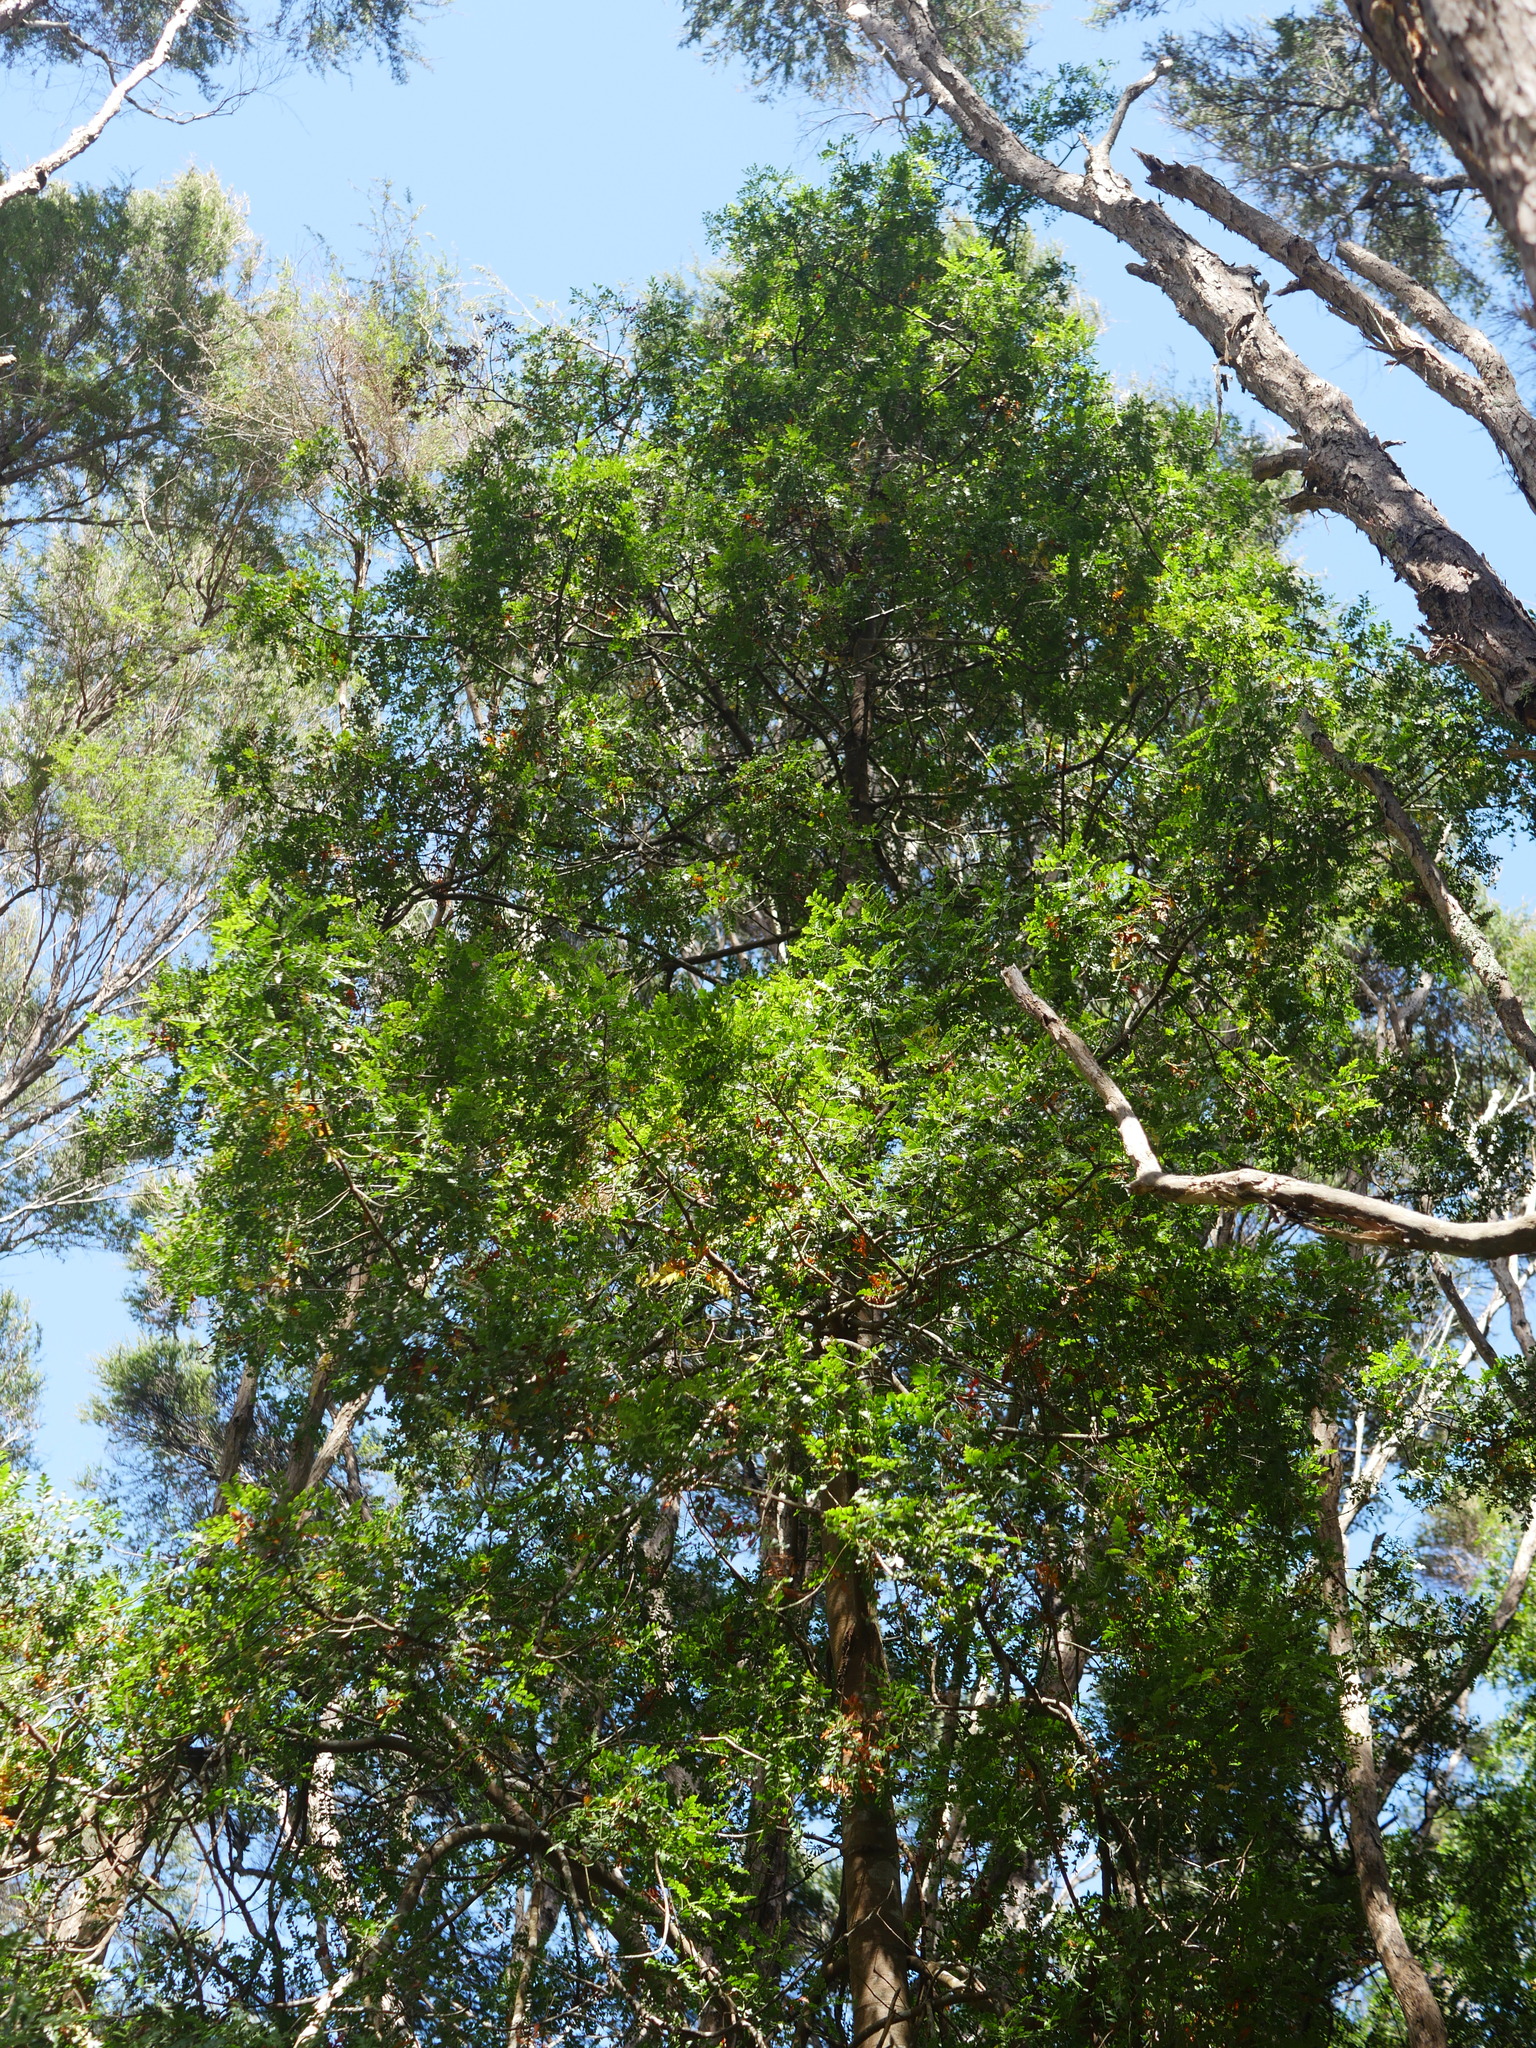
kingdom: Plantae
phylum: Tracheophyta
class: Pinopsida
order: Pinales
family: Phyllocladaceae
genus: Phyllocladus
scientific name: Phyllocladus trichomanoides
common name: Celery pine
